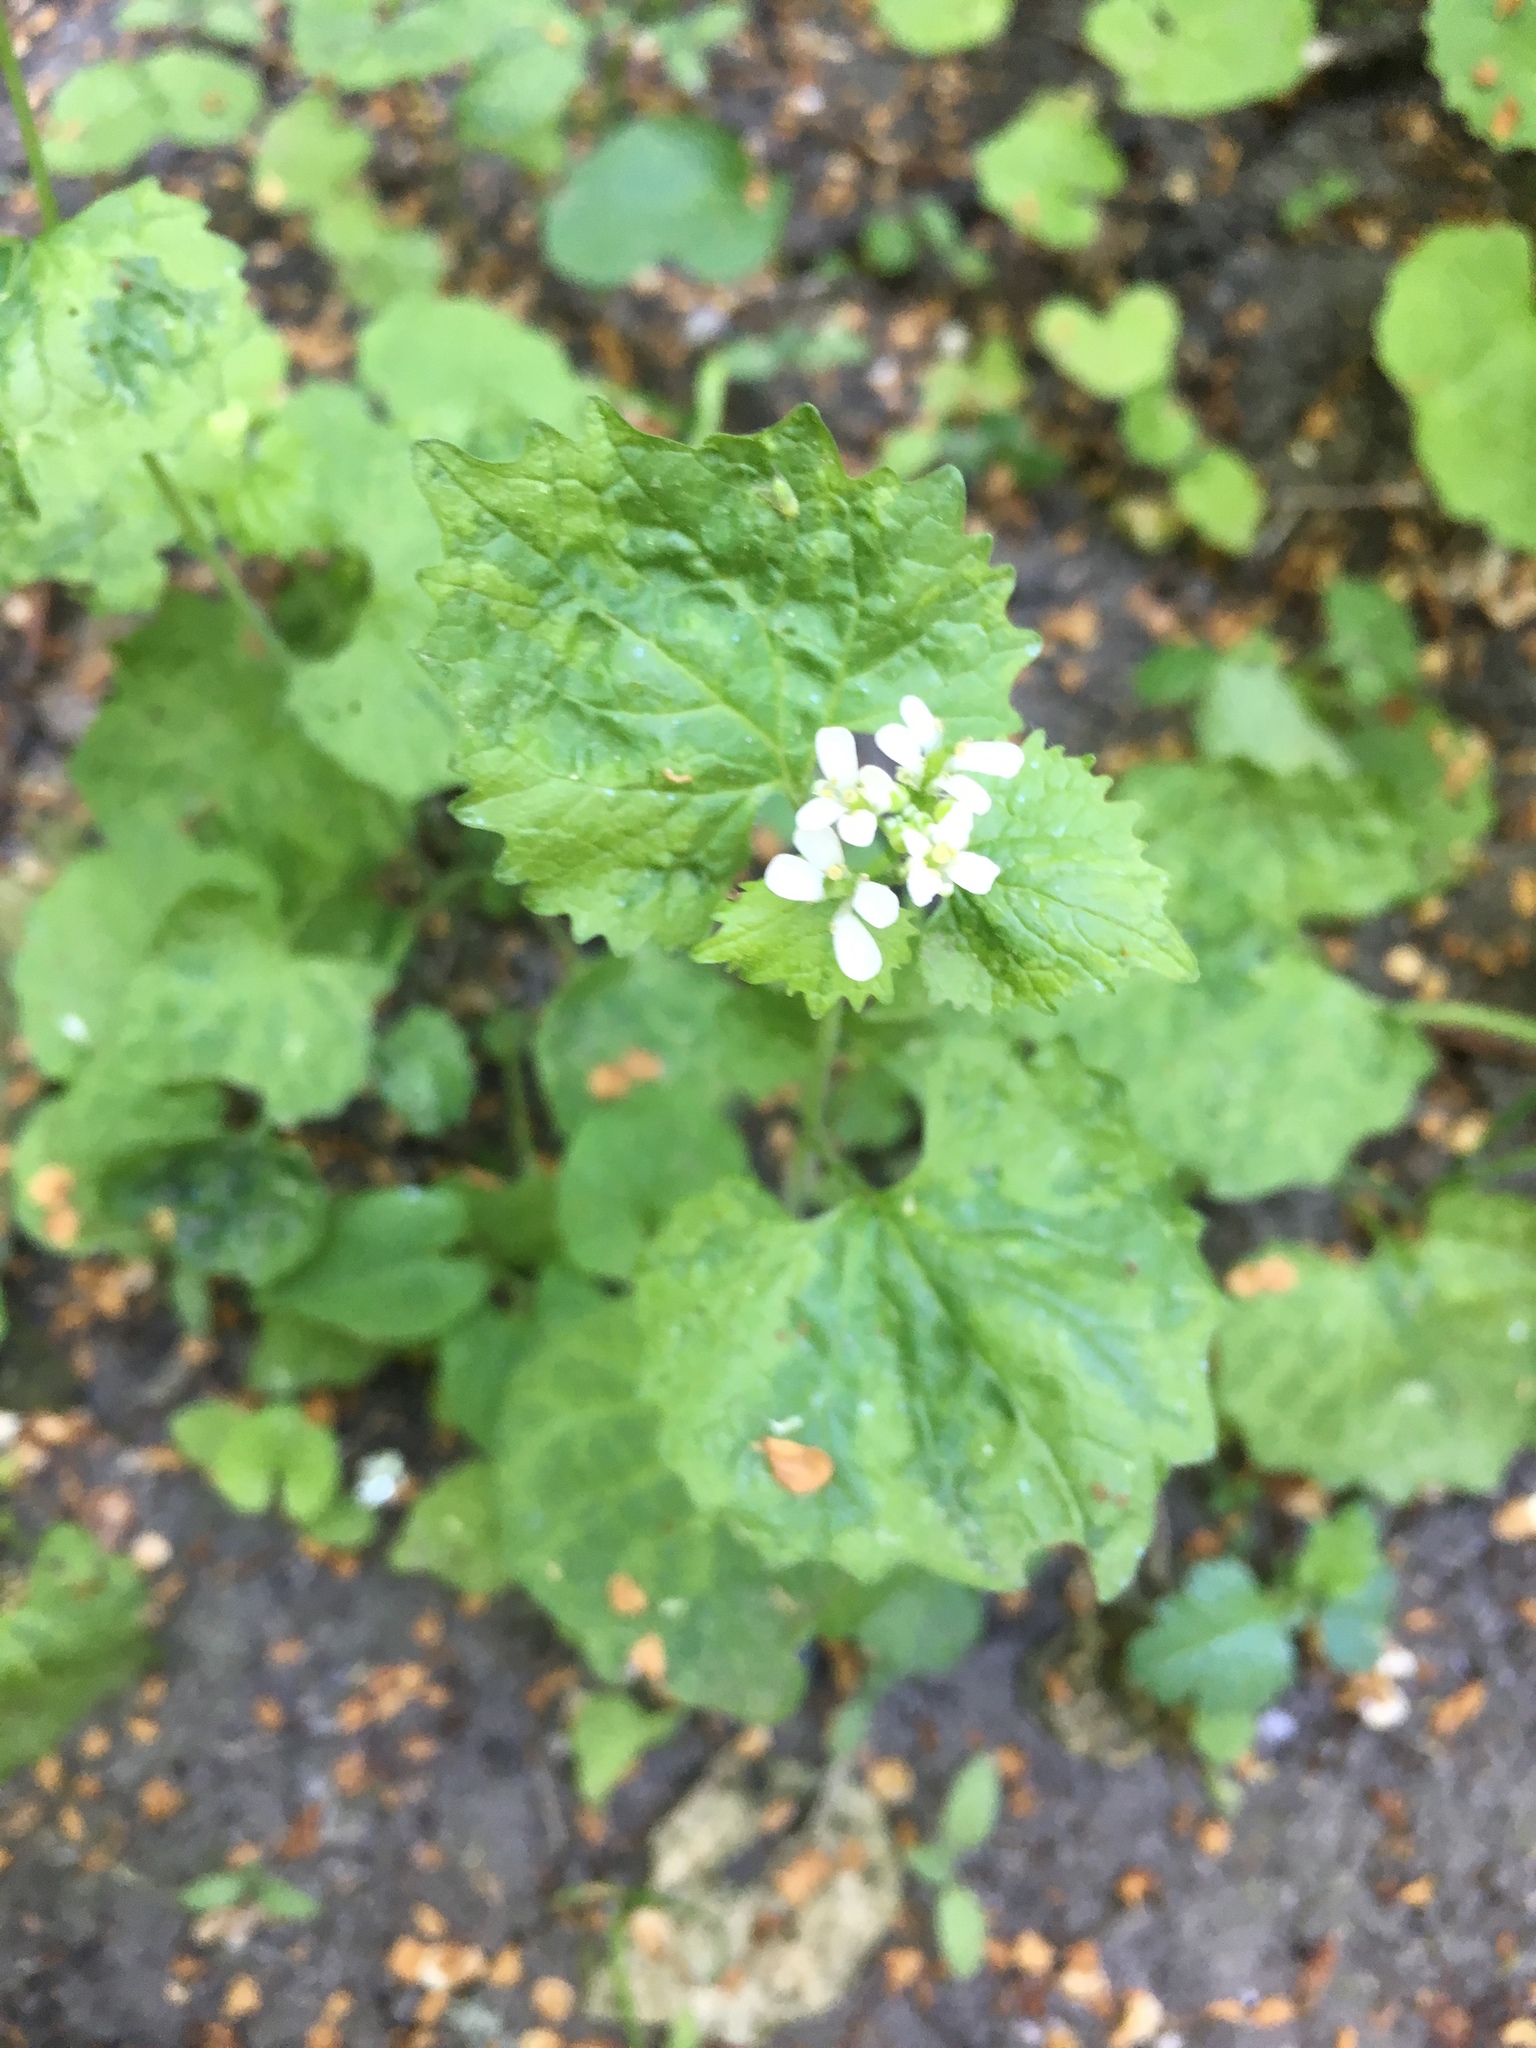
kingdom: Plantae
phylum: Tracheophyta
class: Magnoliopsida
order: Brassicales
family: Brassicaceae
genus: Alliaria
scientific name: Alliaria petiolata
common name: Garlic mustard
